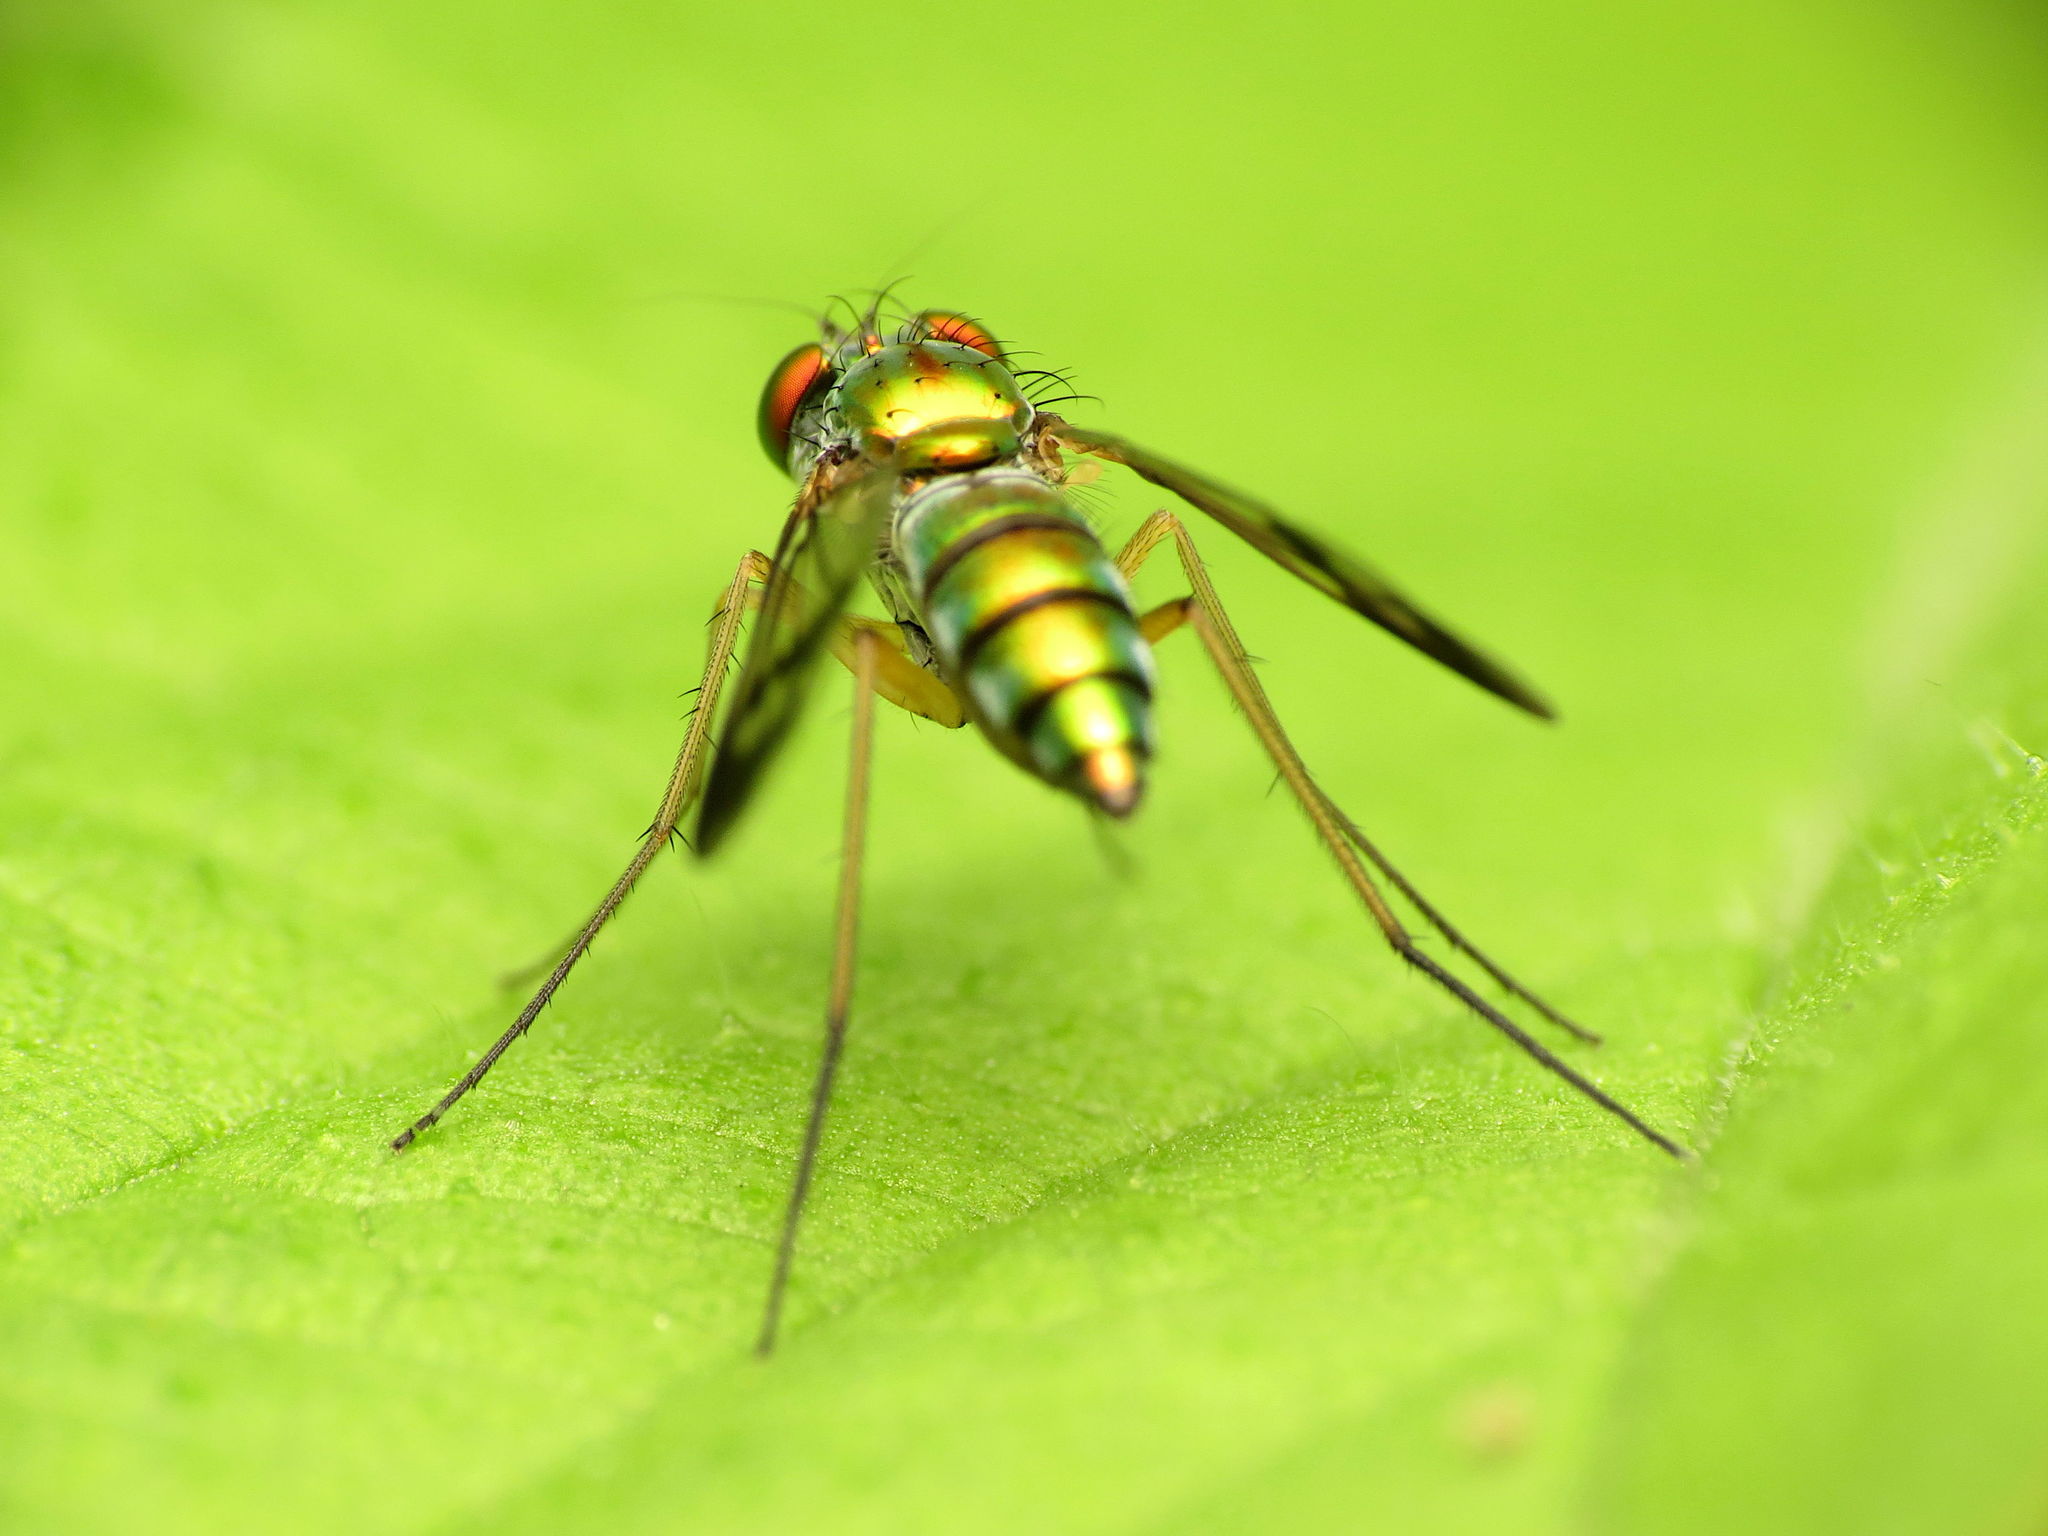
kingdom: Animalia
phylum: Arthropoda
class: Insecta
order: Diptera
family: Dolichopodidae
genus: Condylostylus
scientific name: Condylostylus
